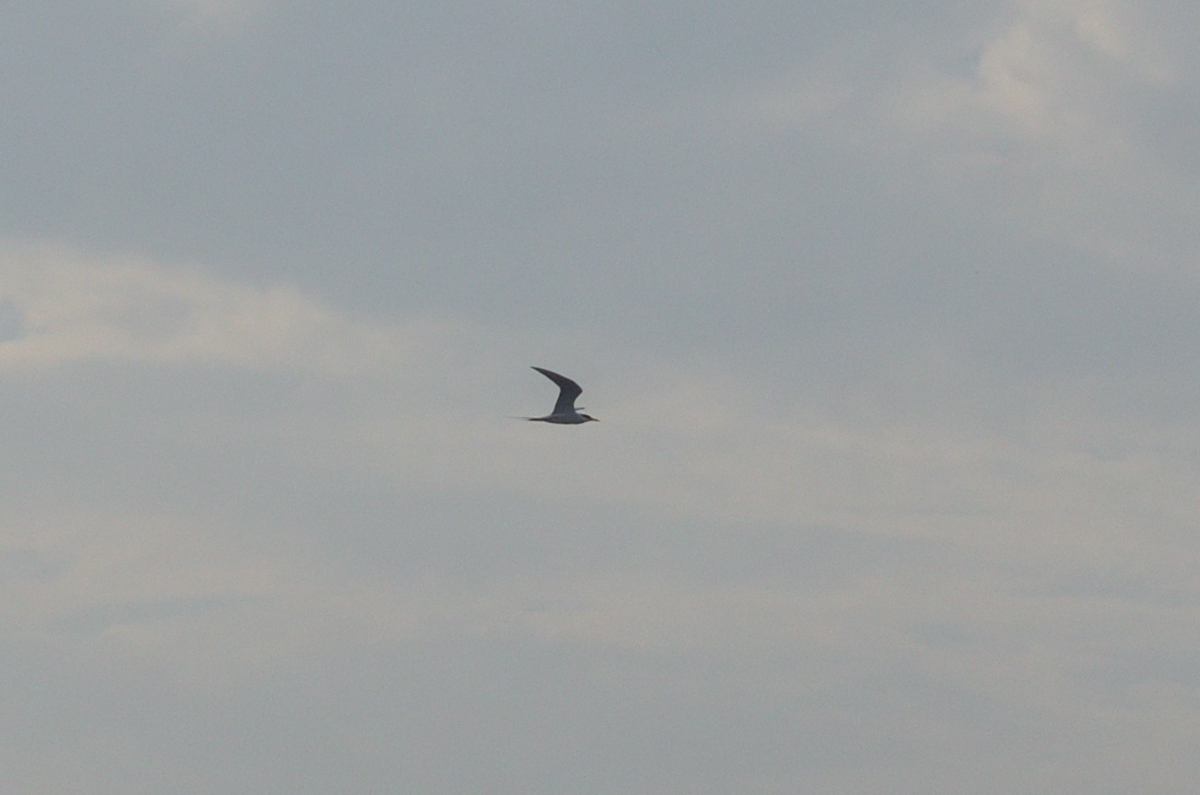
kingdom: Animalia
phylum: Chordata
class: Aves
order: Charadriiformes
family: Laridae
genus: Sterna
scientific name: Sterna aurantia
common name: River tern
